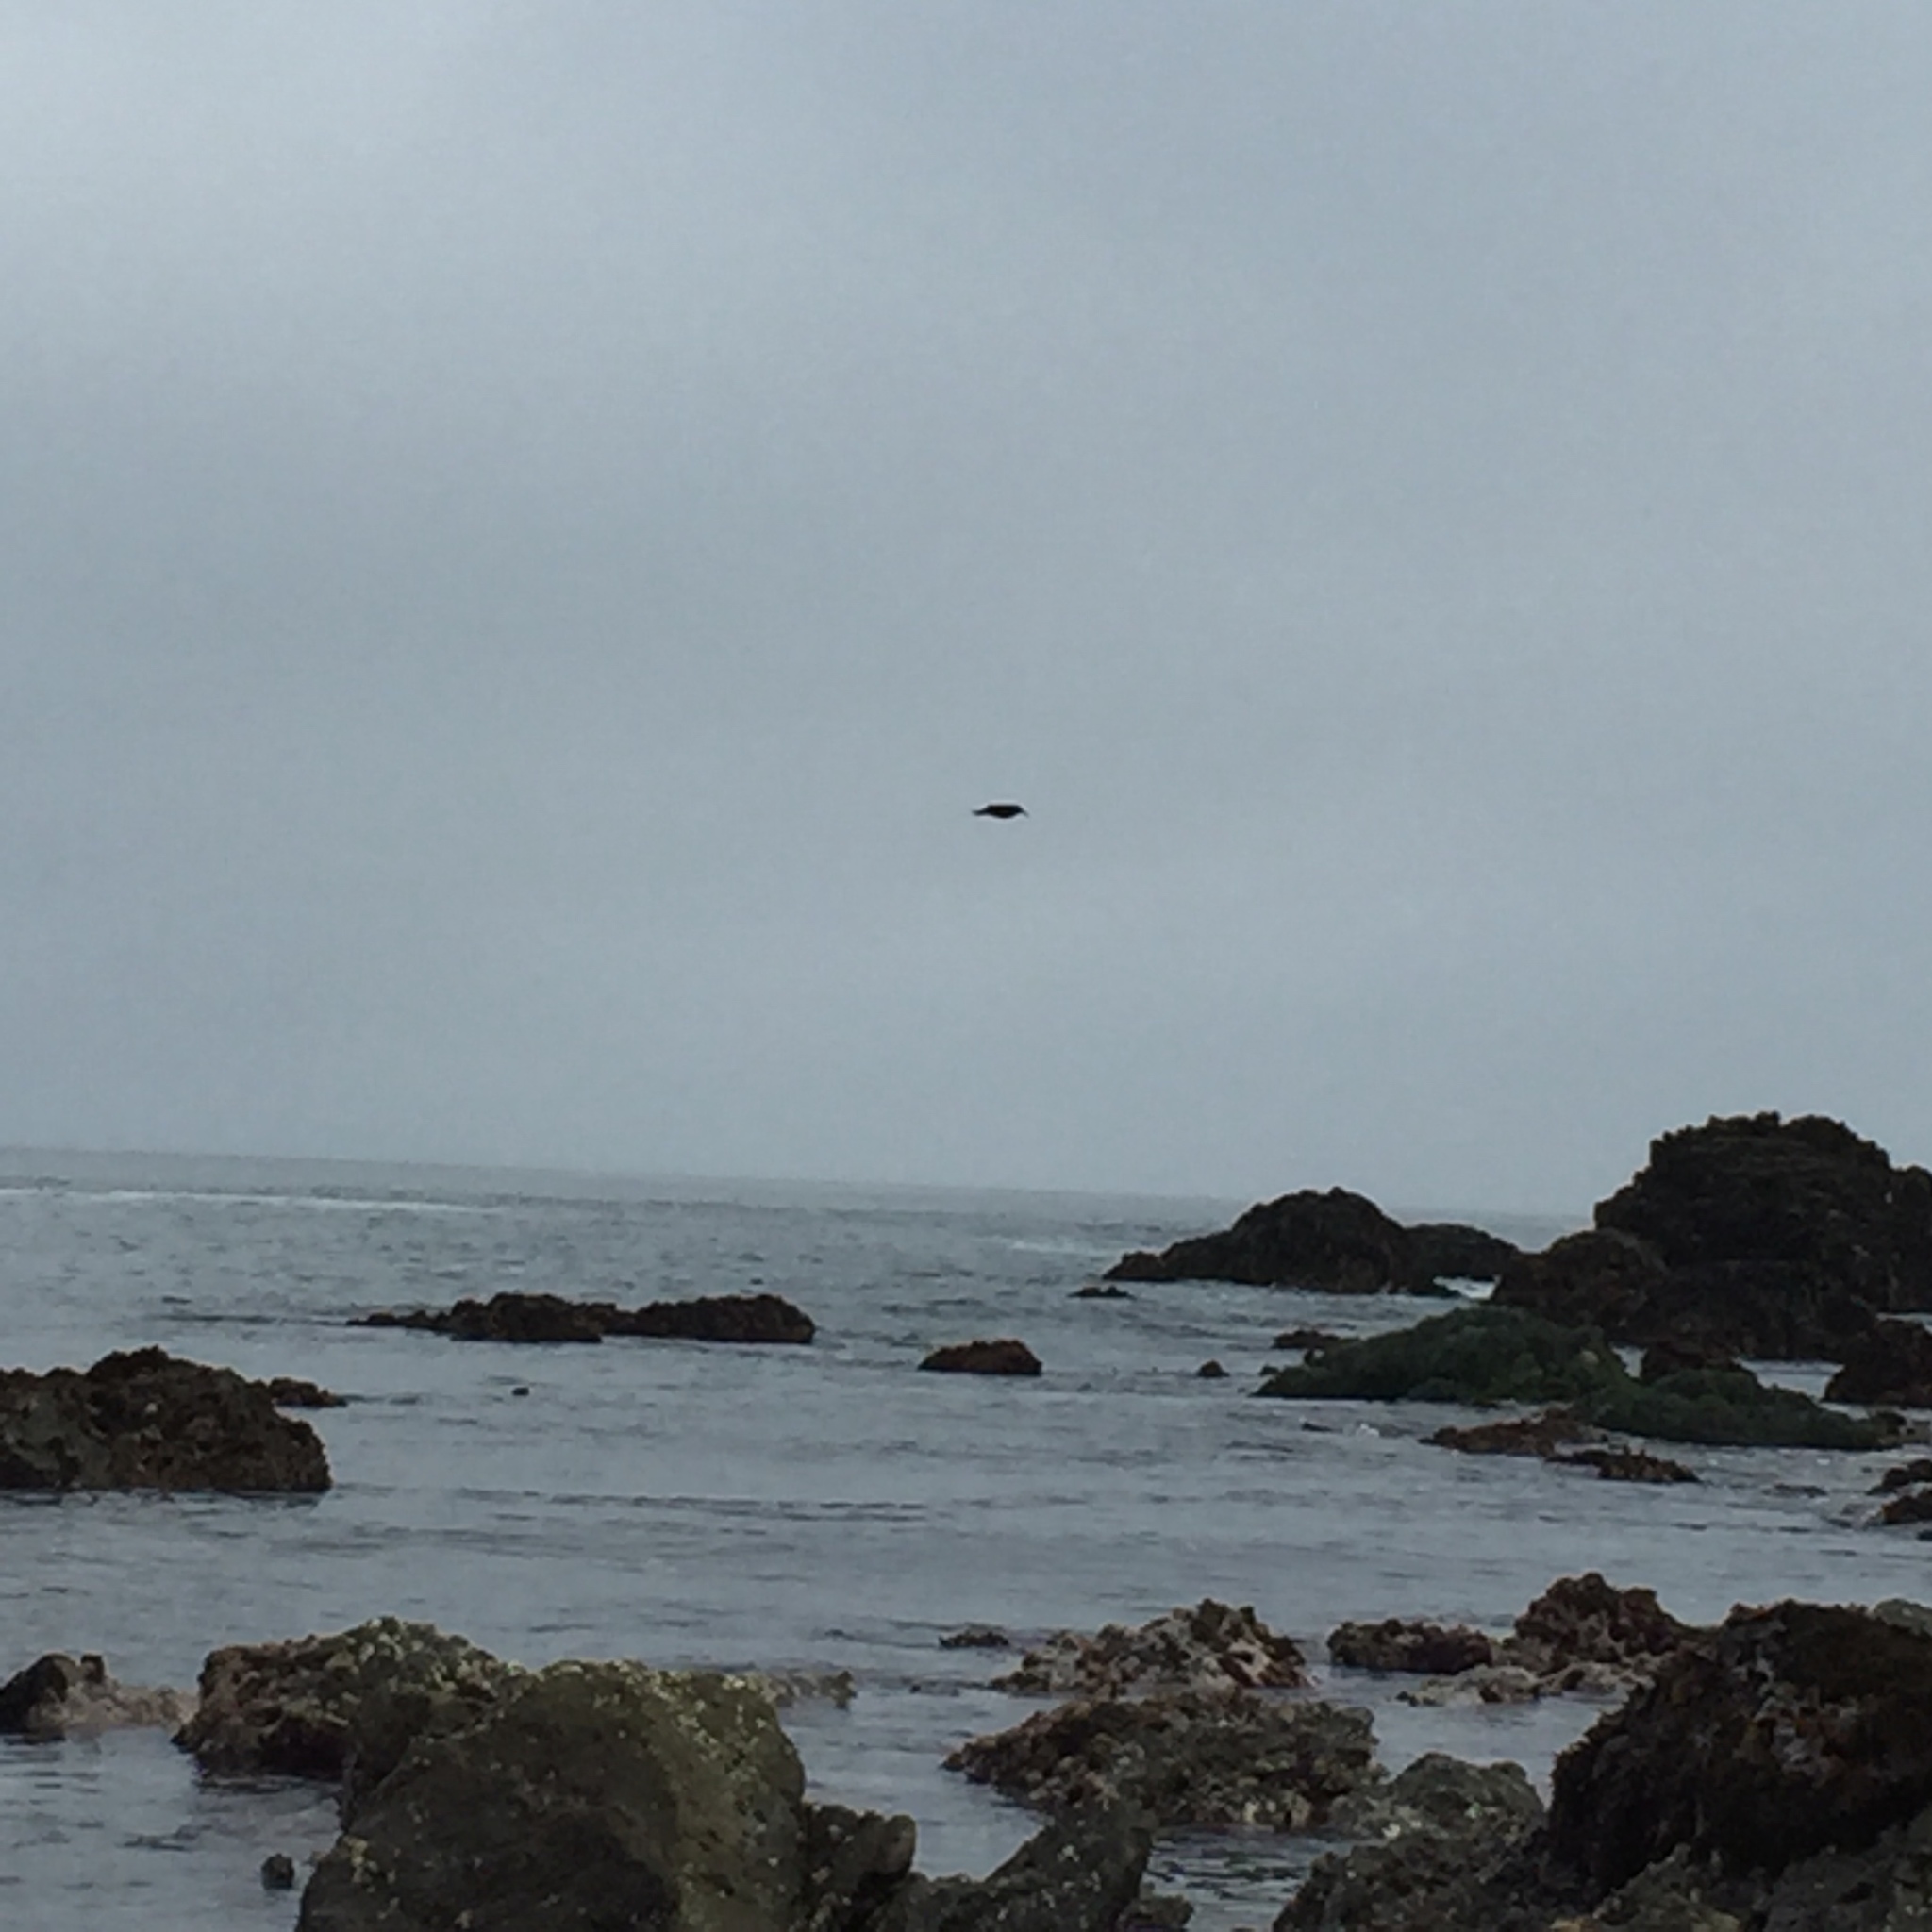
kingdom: Animalia
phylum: Chordata
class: Aves
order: Charadriiformes
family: Haematopodidae
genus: Haematopus
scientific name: Haematopus bachmani
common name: Black oystercatcher
